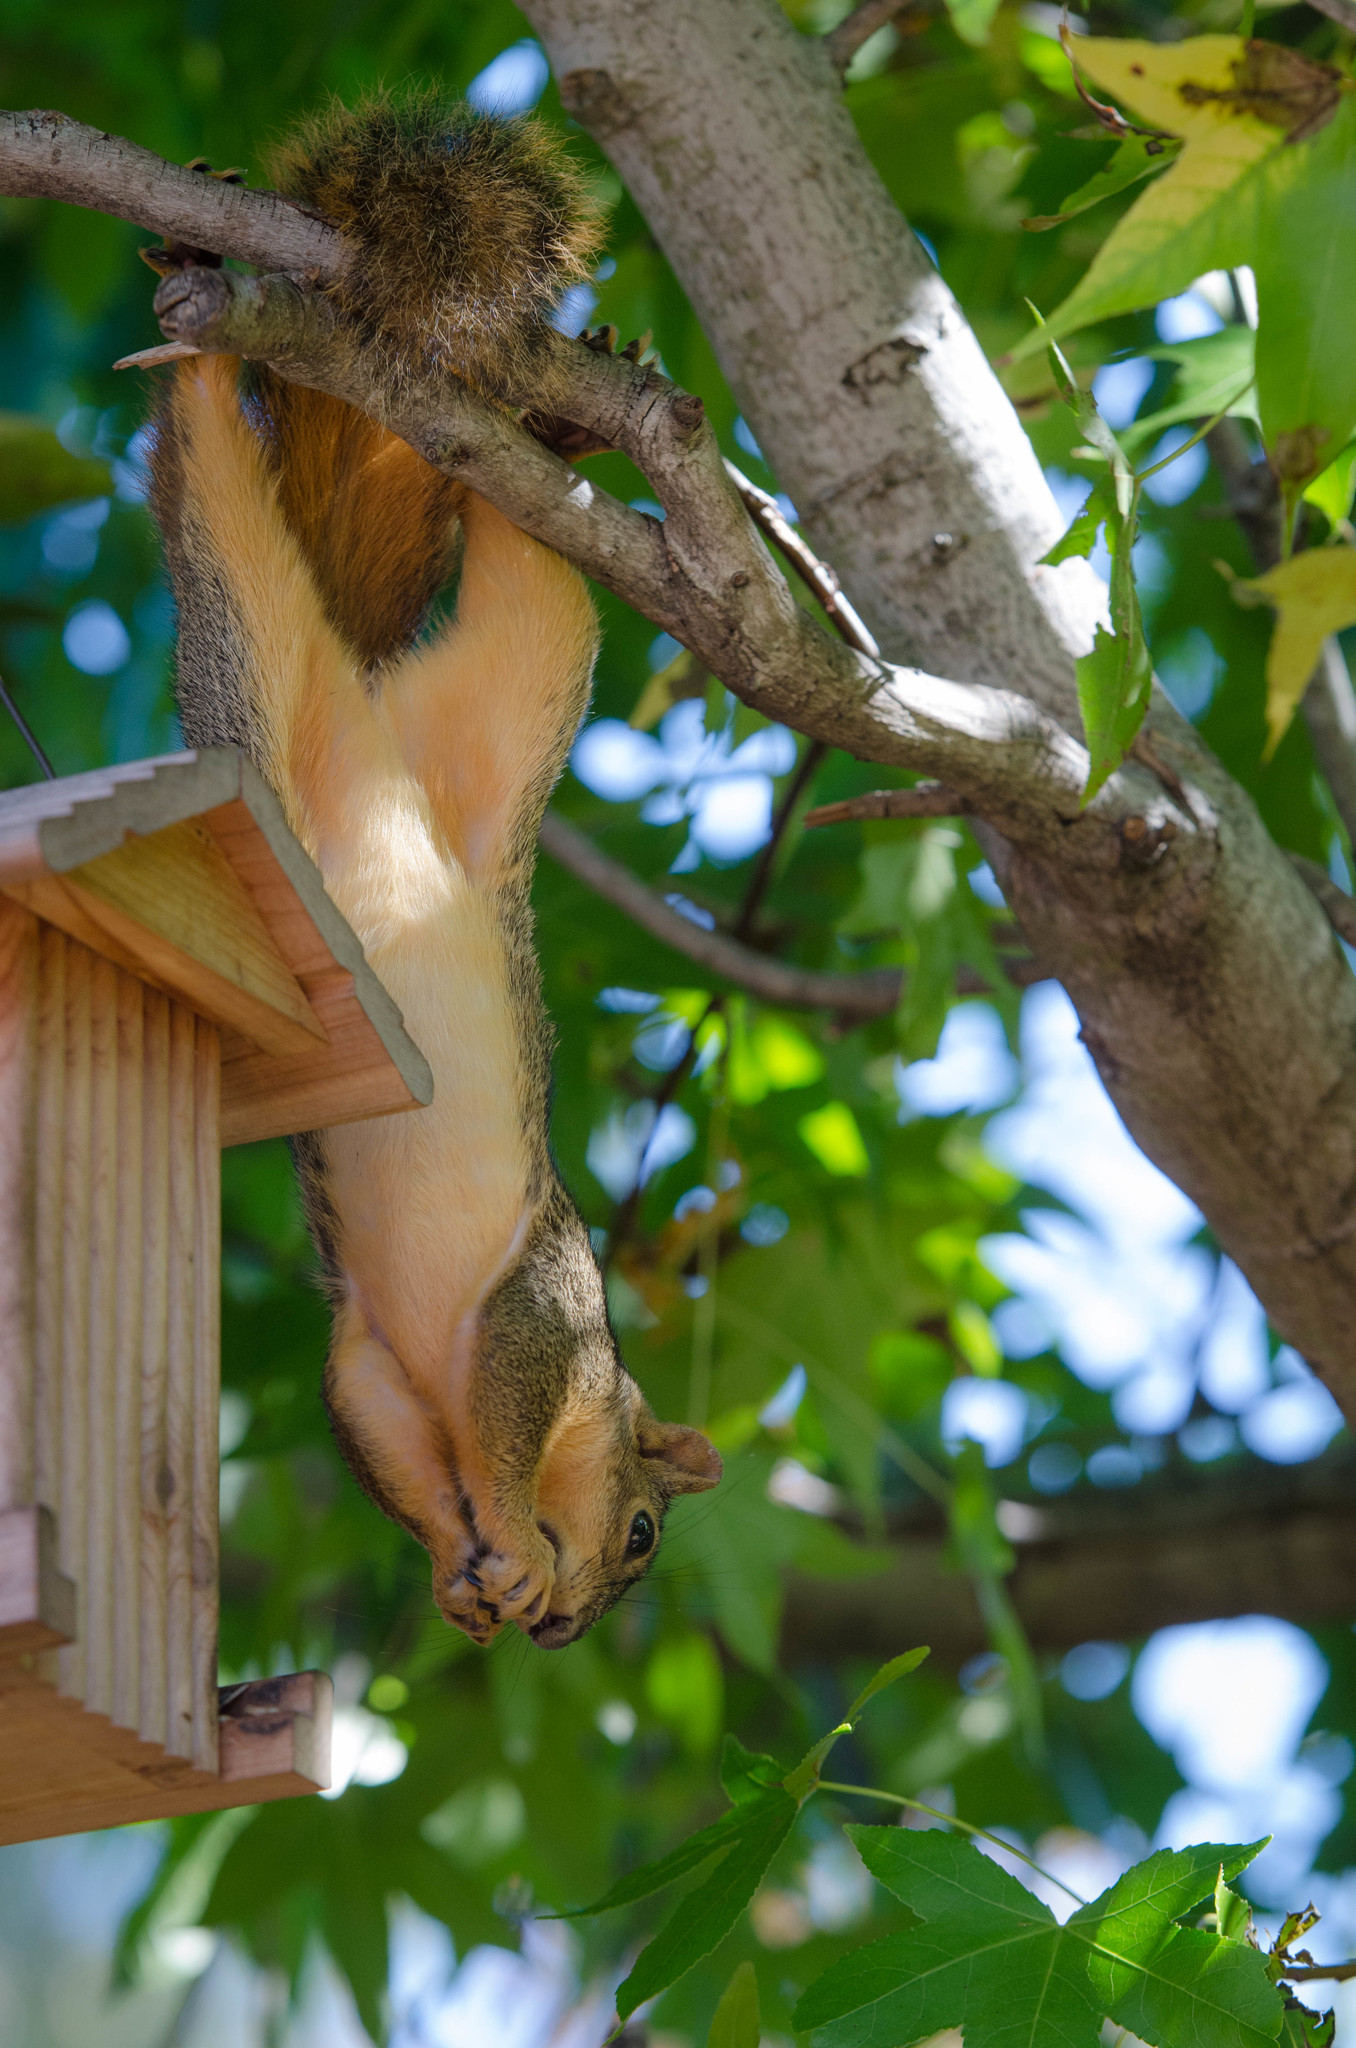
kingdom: Animalia
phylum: Chordata
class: Mammalia
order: Rodentia
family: Sciuridae
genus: Sciurus
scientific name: Sciurus niger
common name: Fox squirrel
